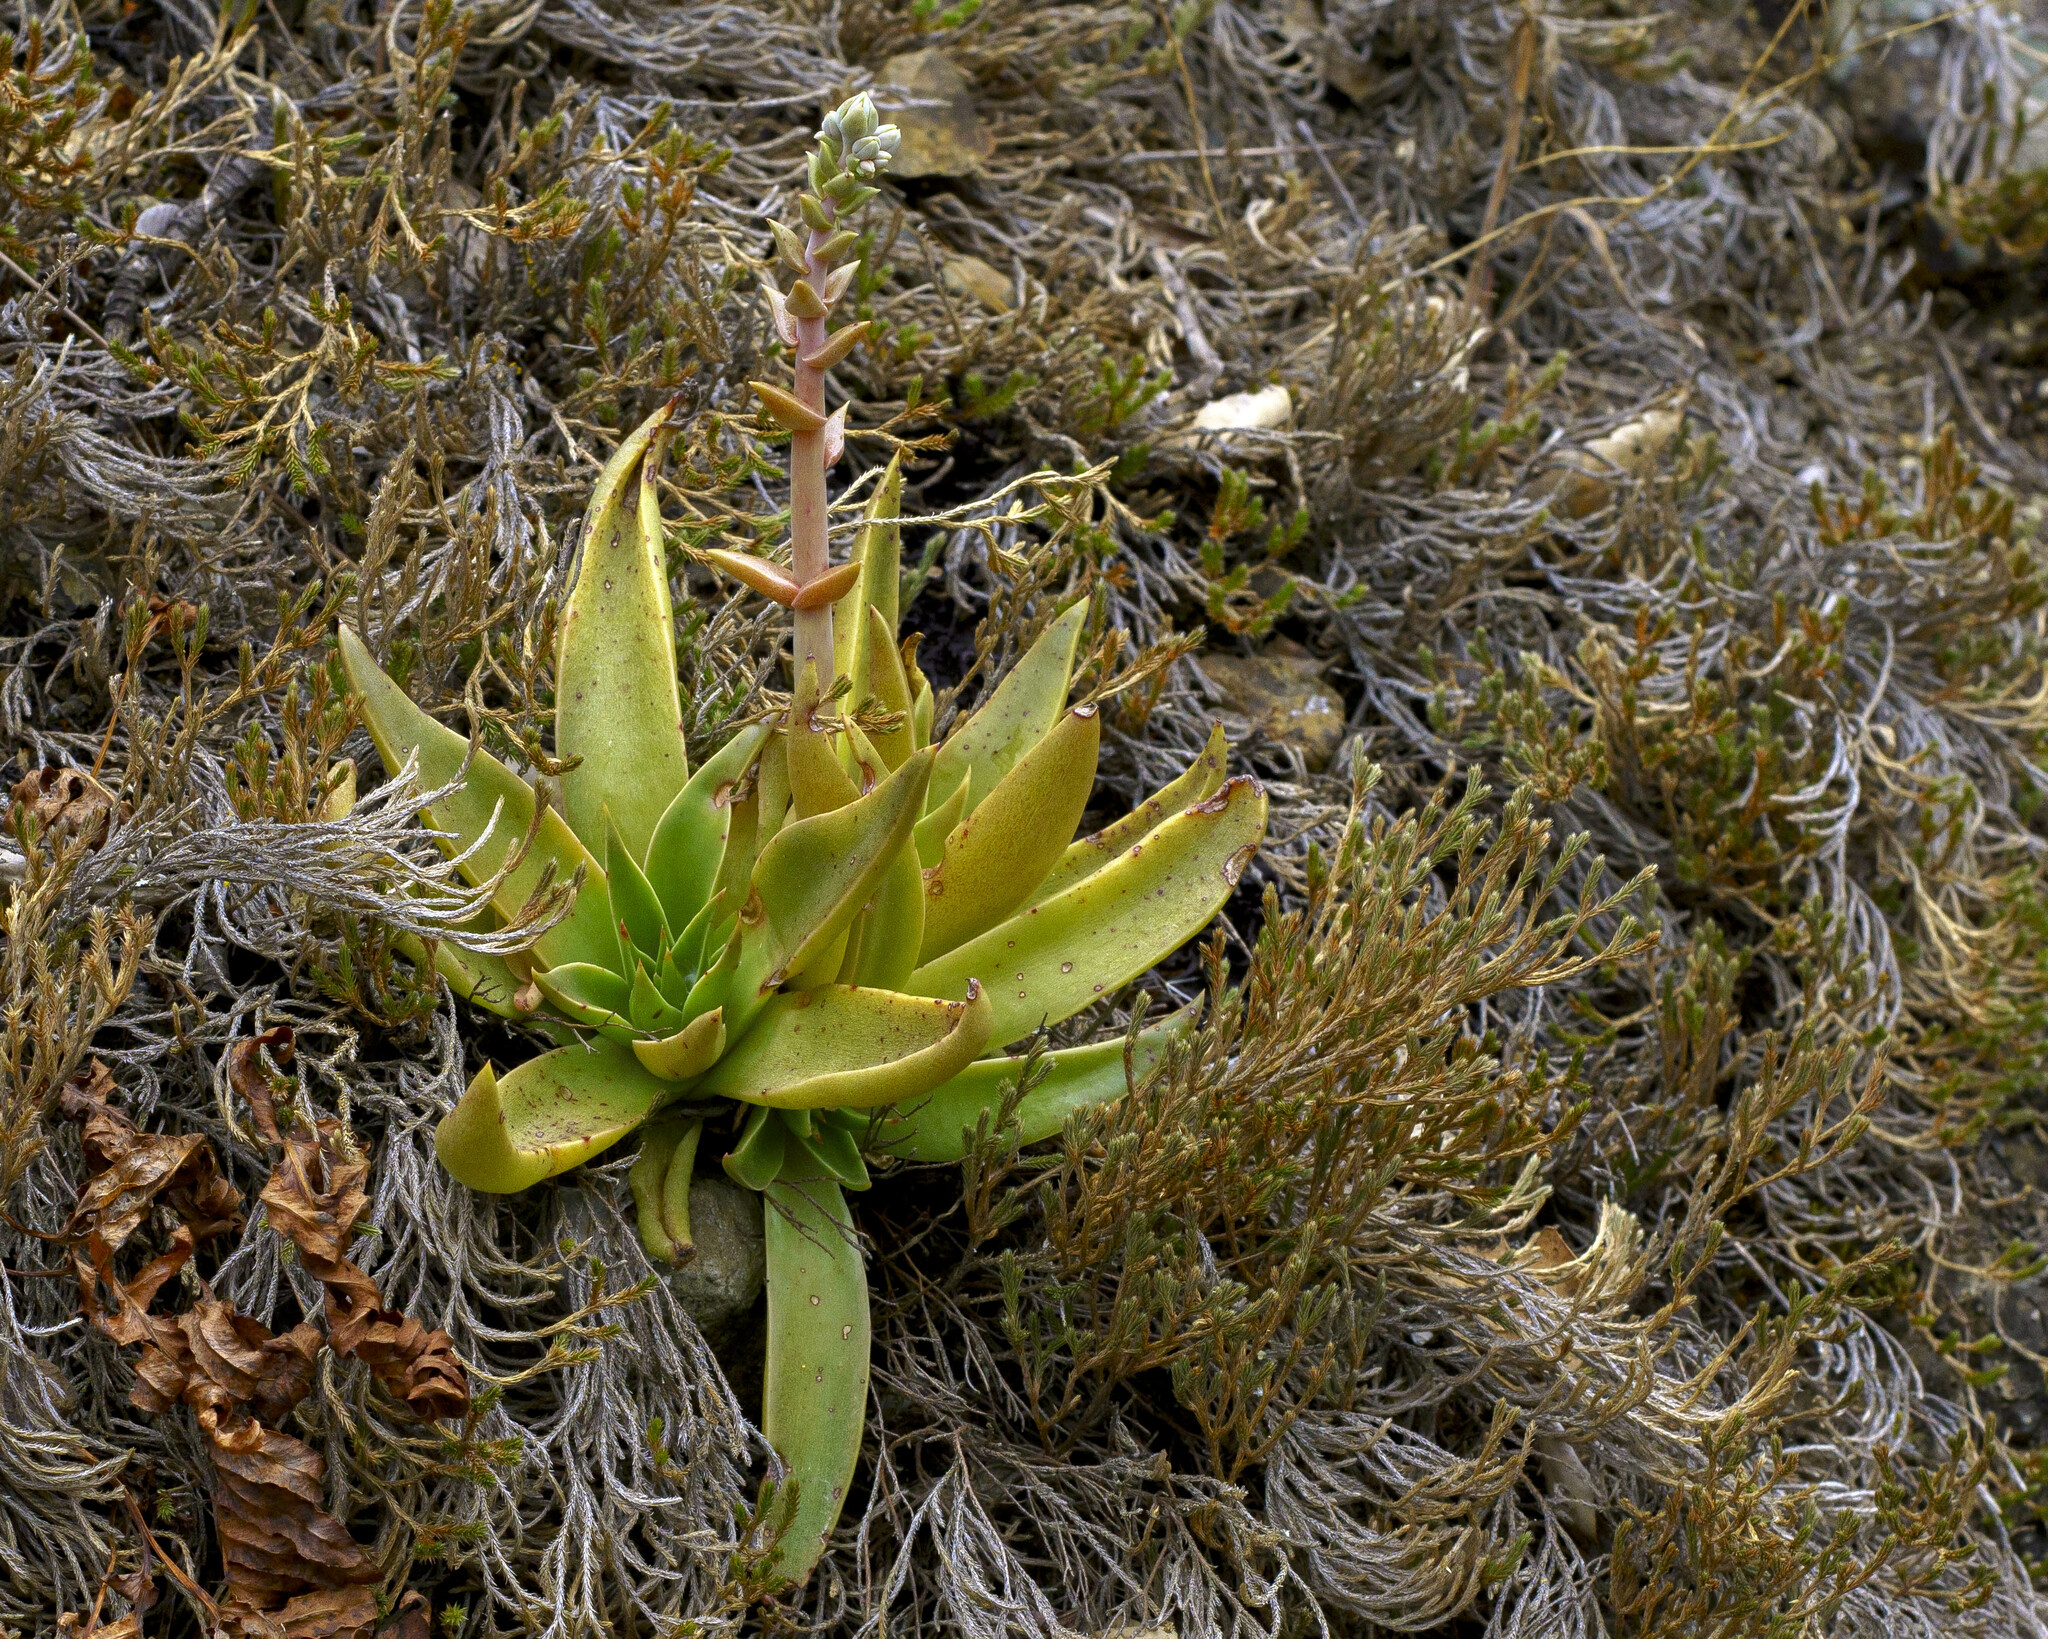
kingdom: Plantae
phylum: Tracheophyta
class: Magnoliopsida
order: Saxifragales
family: Crassulaceae
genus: Dudleya
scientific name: Dudleya lanceolata
